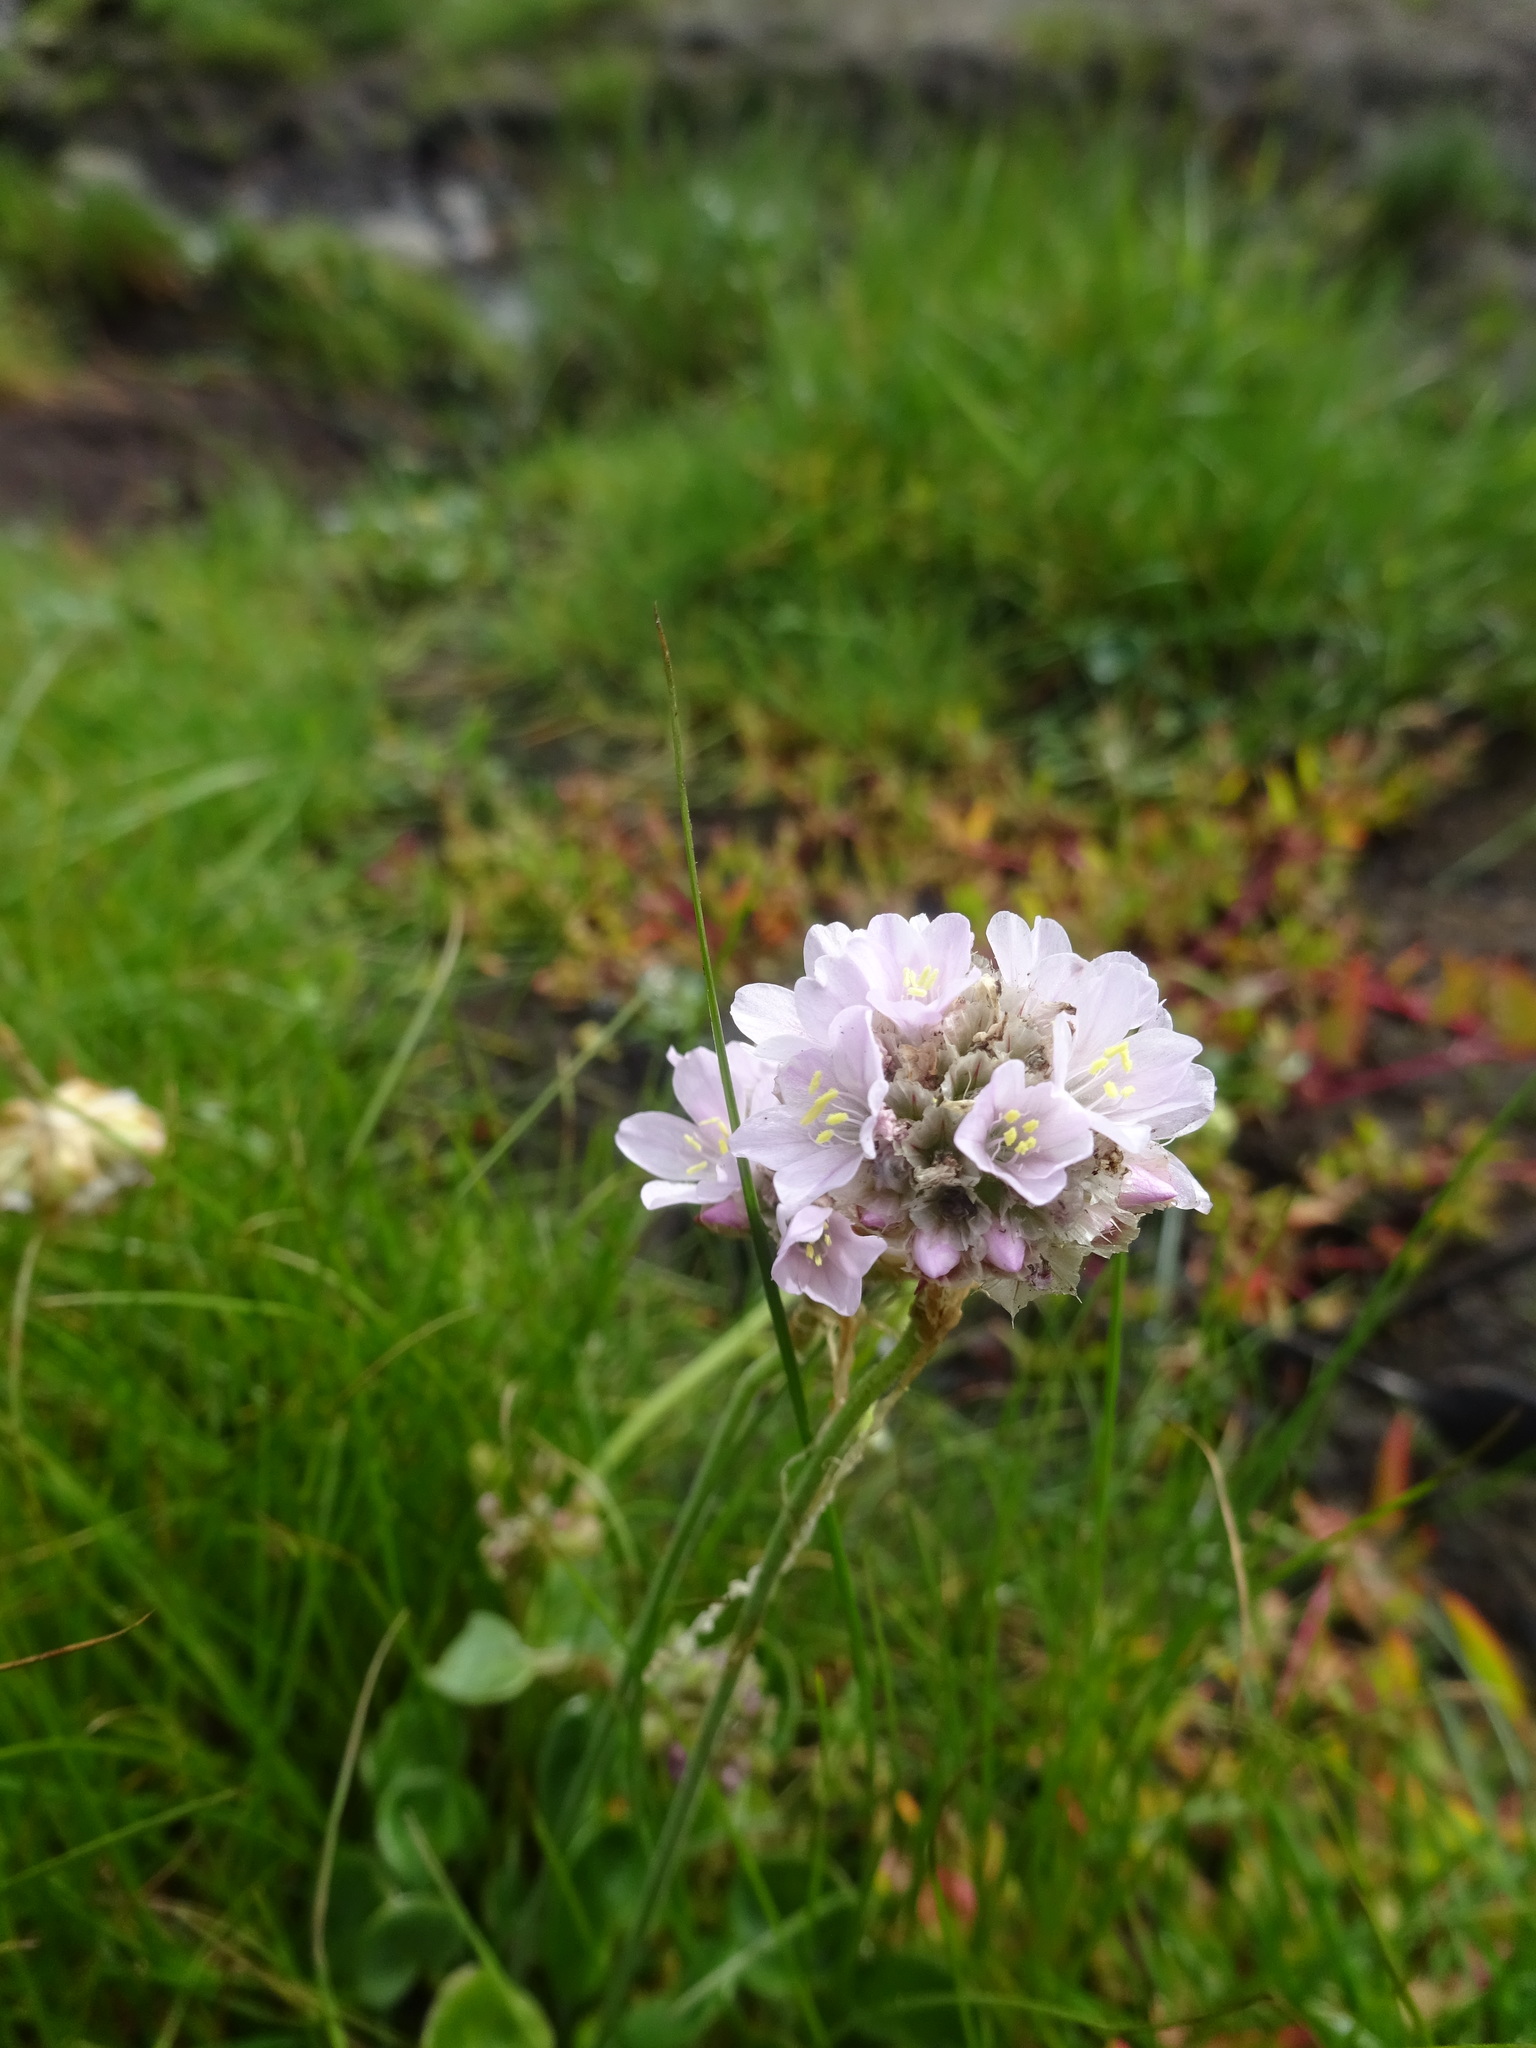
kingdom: Plantae
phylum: Tracheophyta
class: Magnoliopsida
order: Caryophyllales
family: Plumbaginaceae
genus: Armeria
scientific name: Armeria maritima
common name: Thrift
